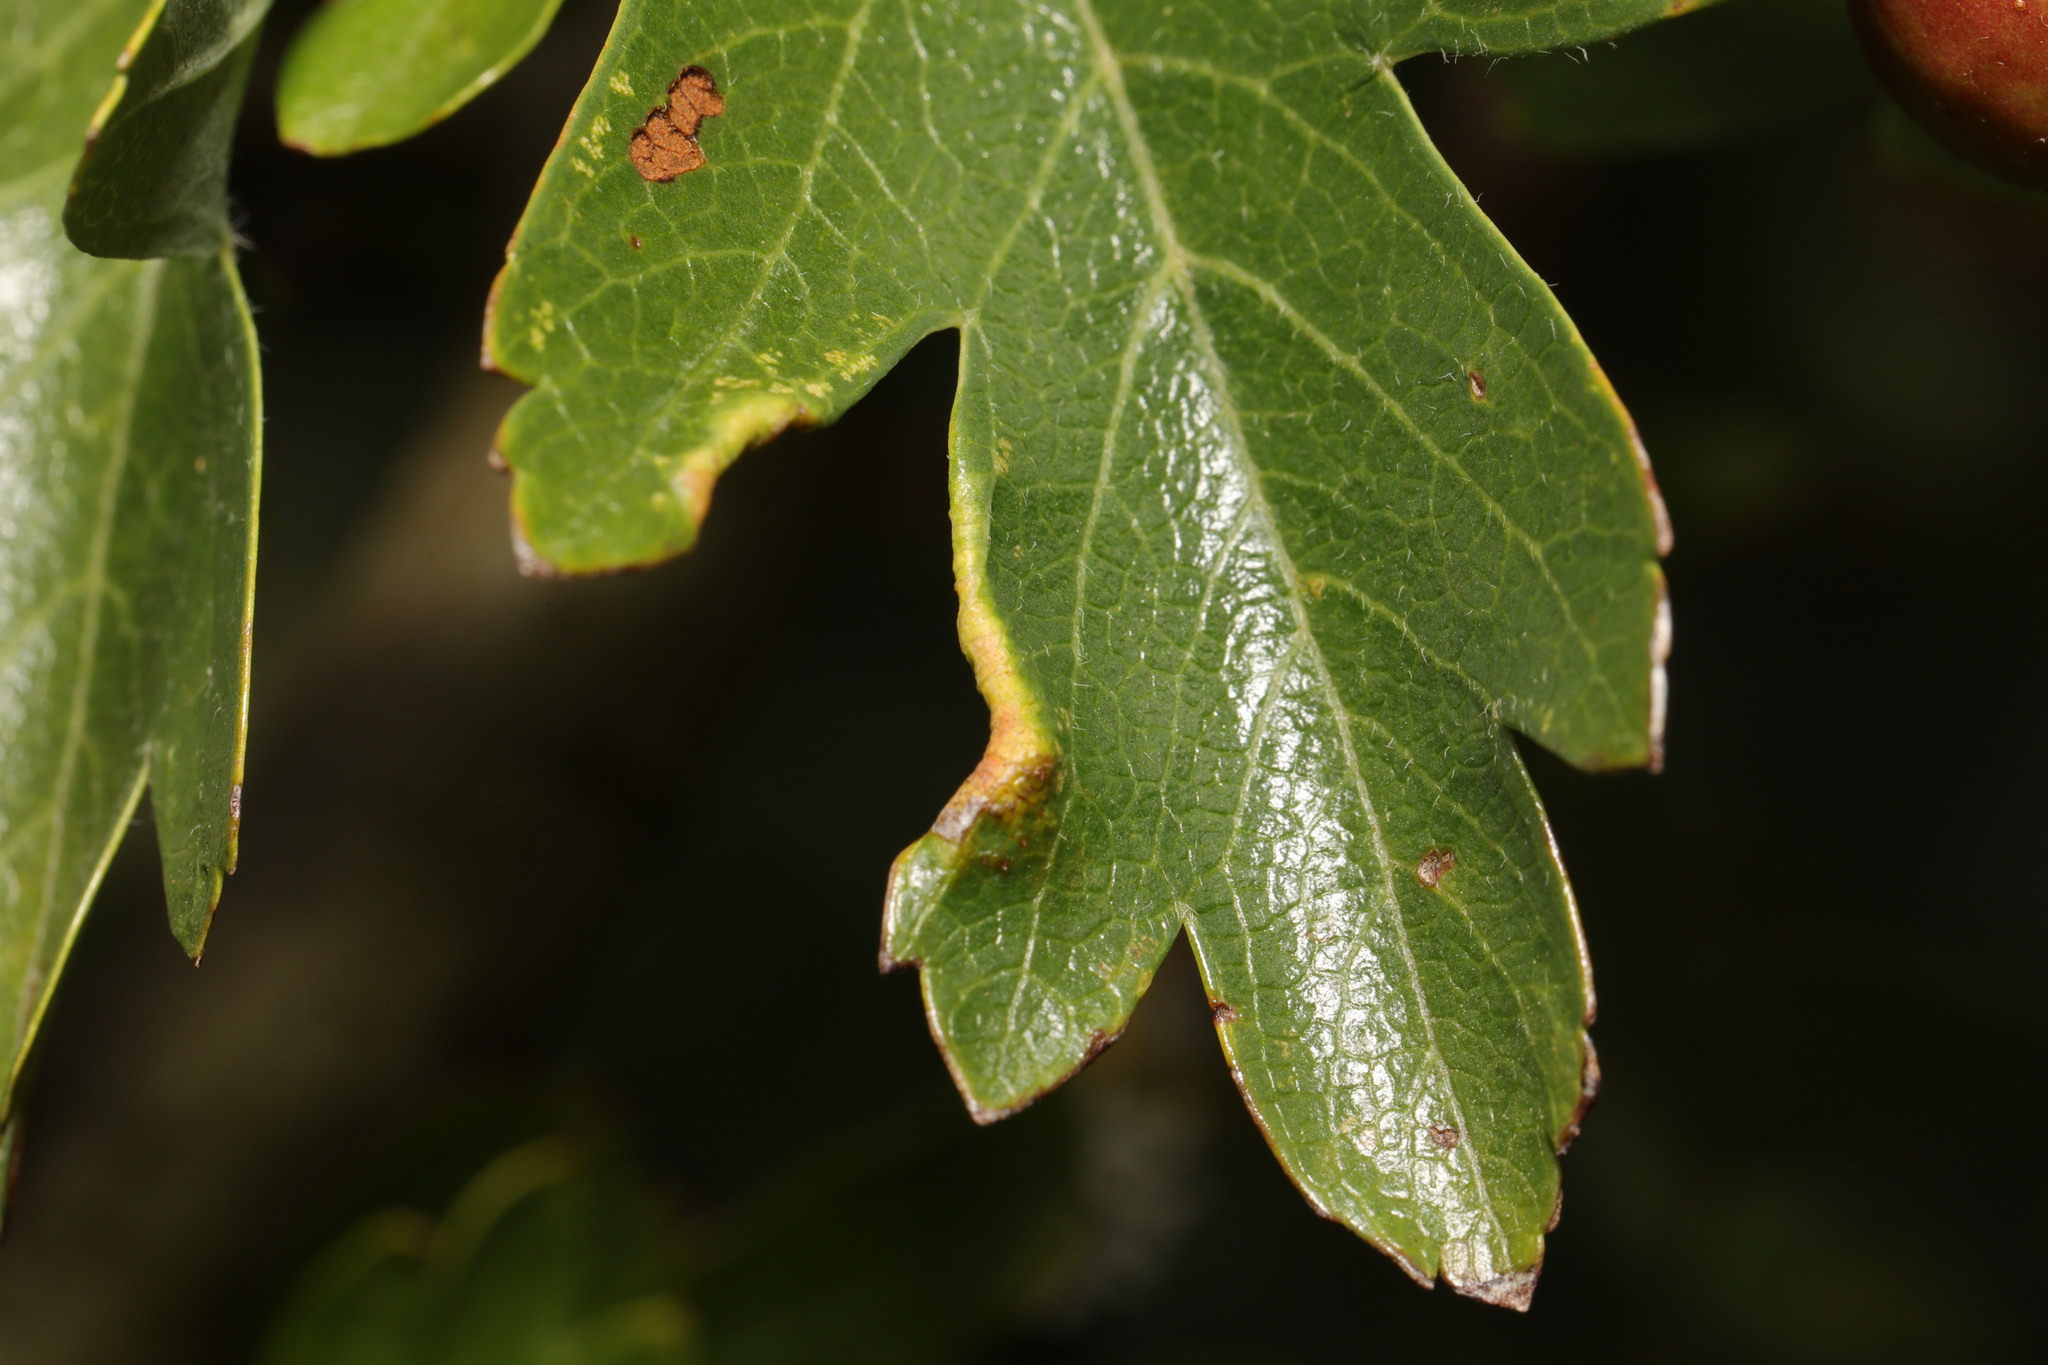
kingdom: Animalia
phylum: Arthropoda
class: Arachnida
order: Trombidiformes
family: Eriophyidae
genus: Phyllocoptes
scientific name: Phyllocoptes goniothorax
